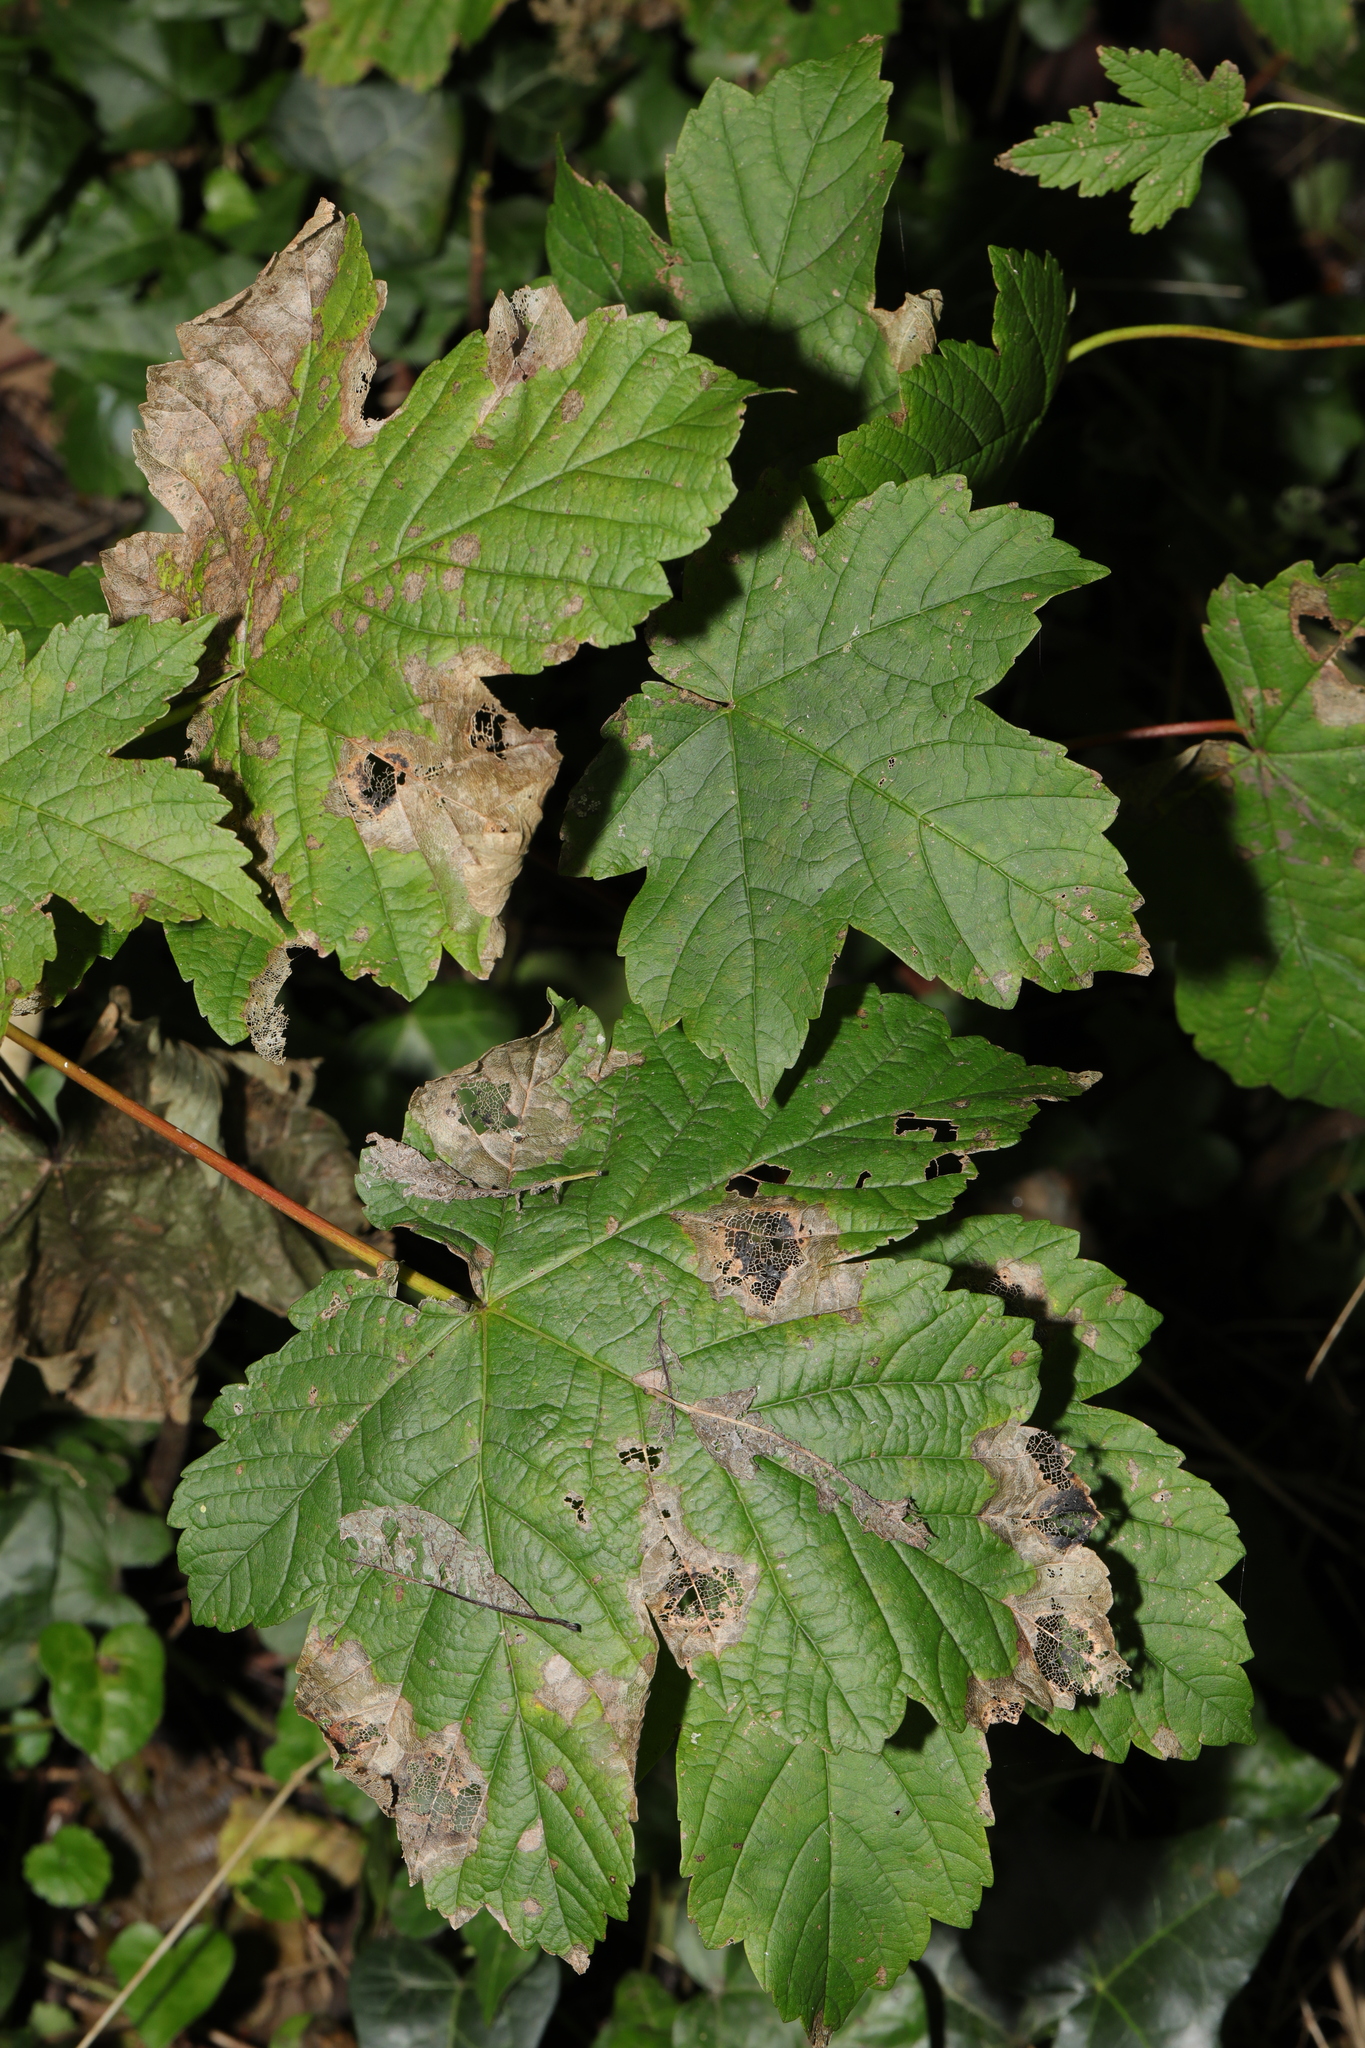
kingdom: Plantae
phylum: Tracheophyta
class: Magnoliopsida
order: Sapindales
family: Sapindaceae
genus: Acer
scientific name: Acer pseudoplatanus
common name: Sycamore
